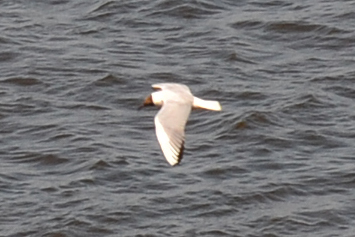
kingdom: Animalia
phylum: Chordata
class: Aves
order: Charadriiformes
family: Laridae
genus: Chroicocephalus
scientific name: Chroicocephalus ridibundus
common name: Black-headed gull
